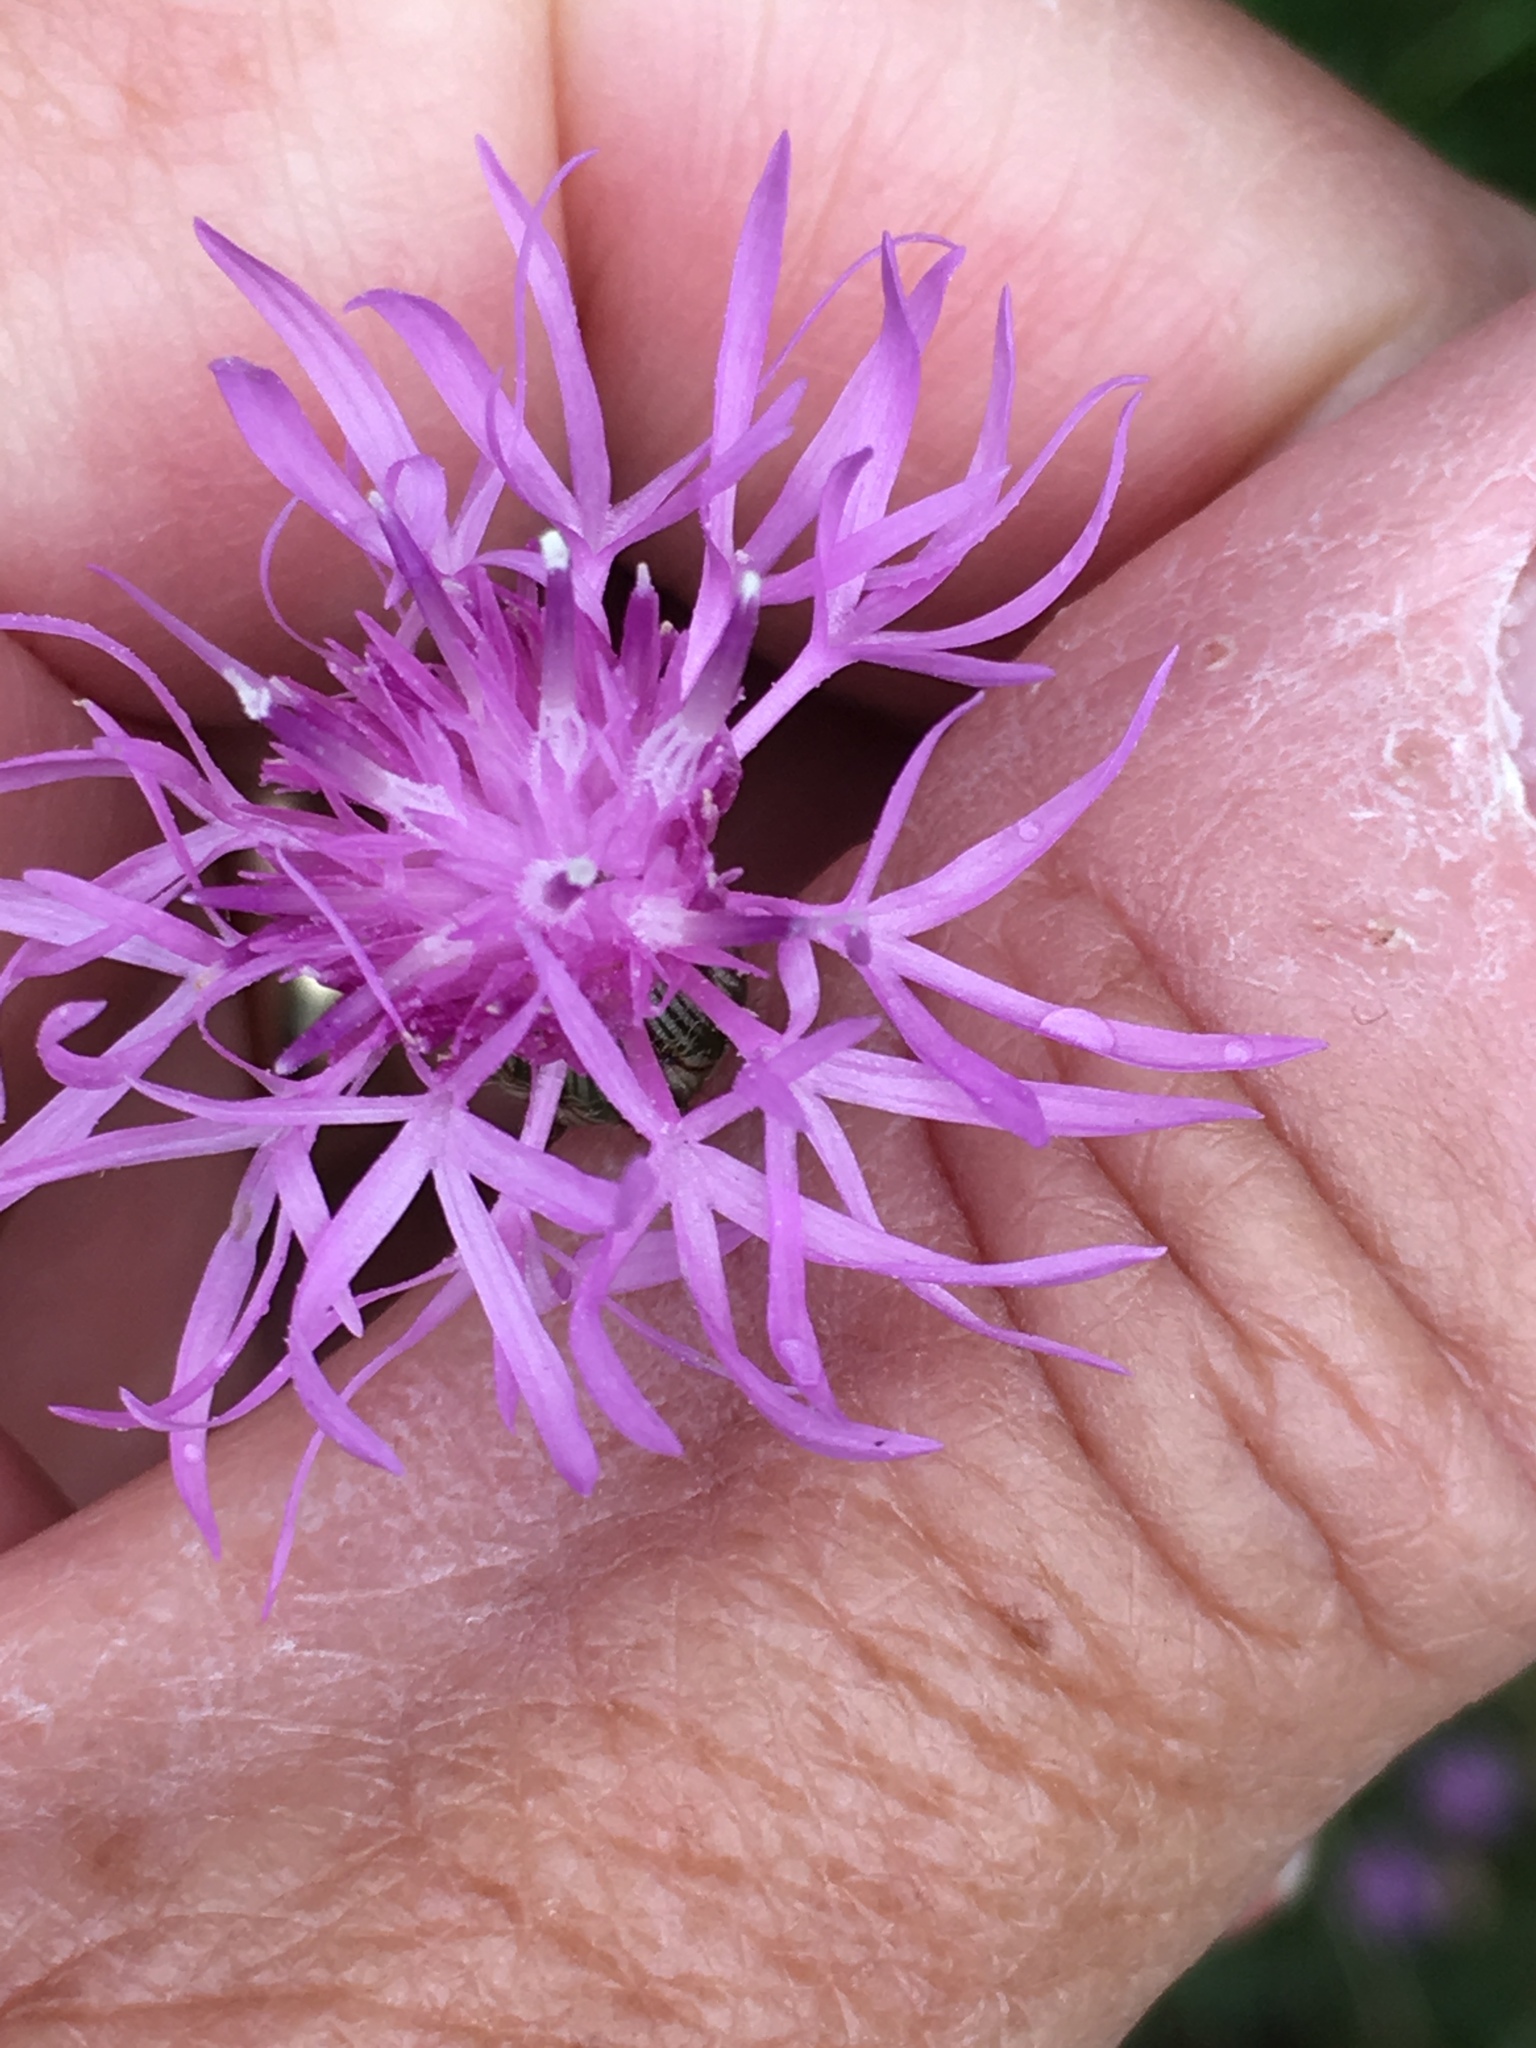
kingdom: Plantae
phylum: Tracheophyta
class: Magnoliopsida
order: Asterales
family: Asteraceae
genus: Centaurea
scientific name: Centaurea stoebe
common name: Spotted knapweed
